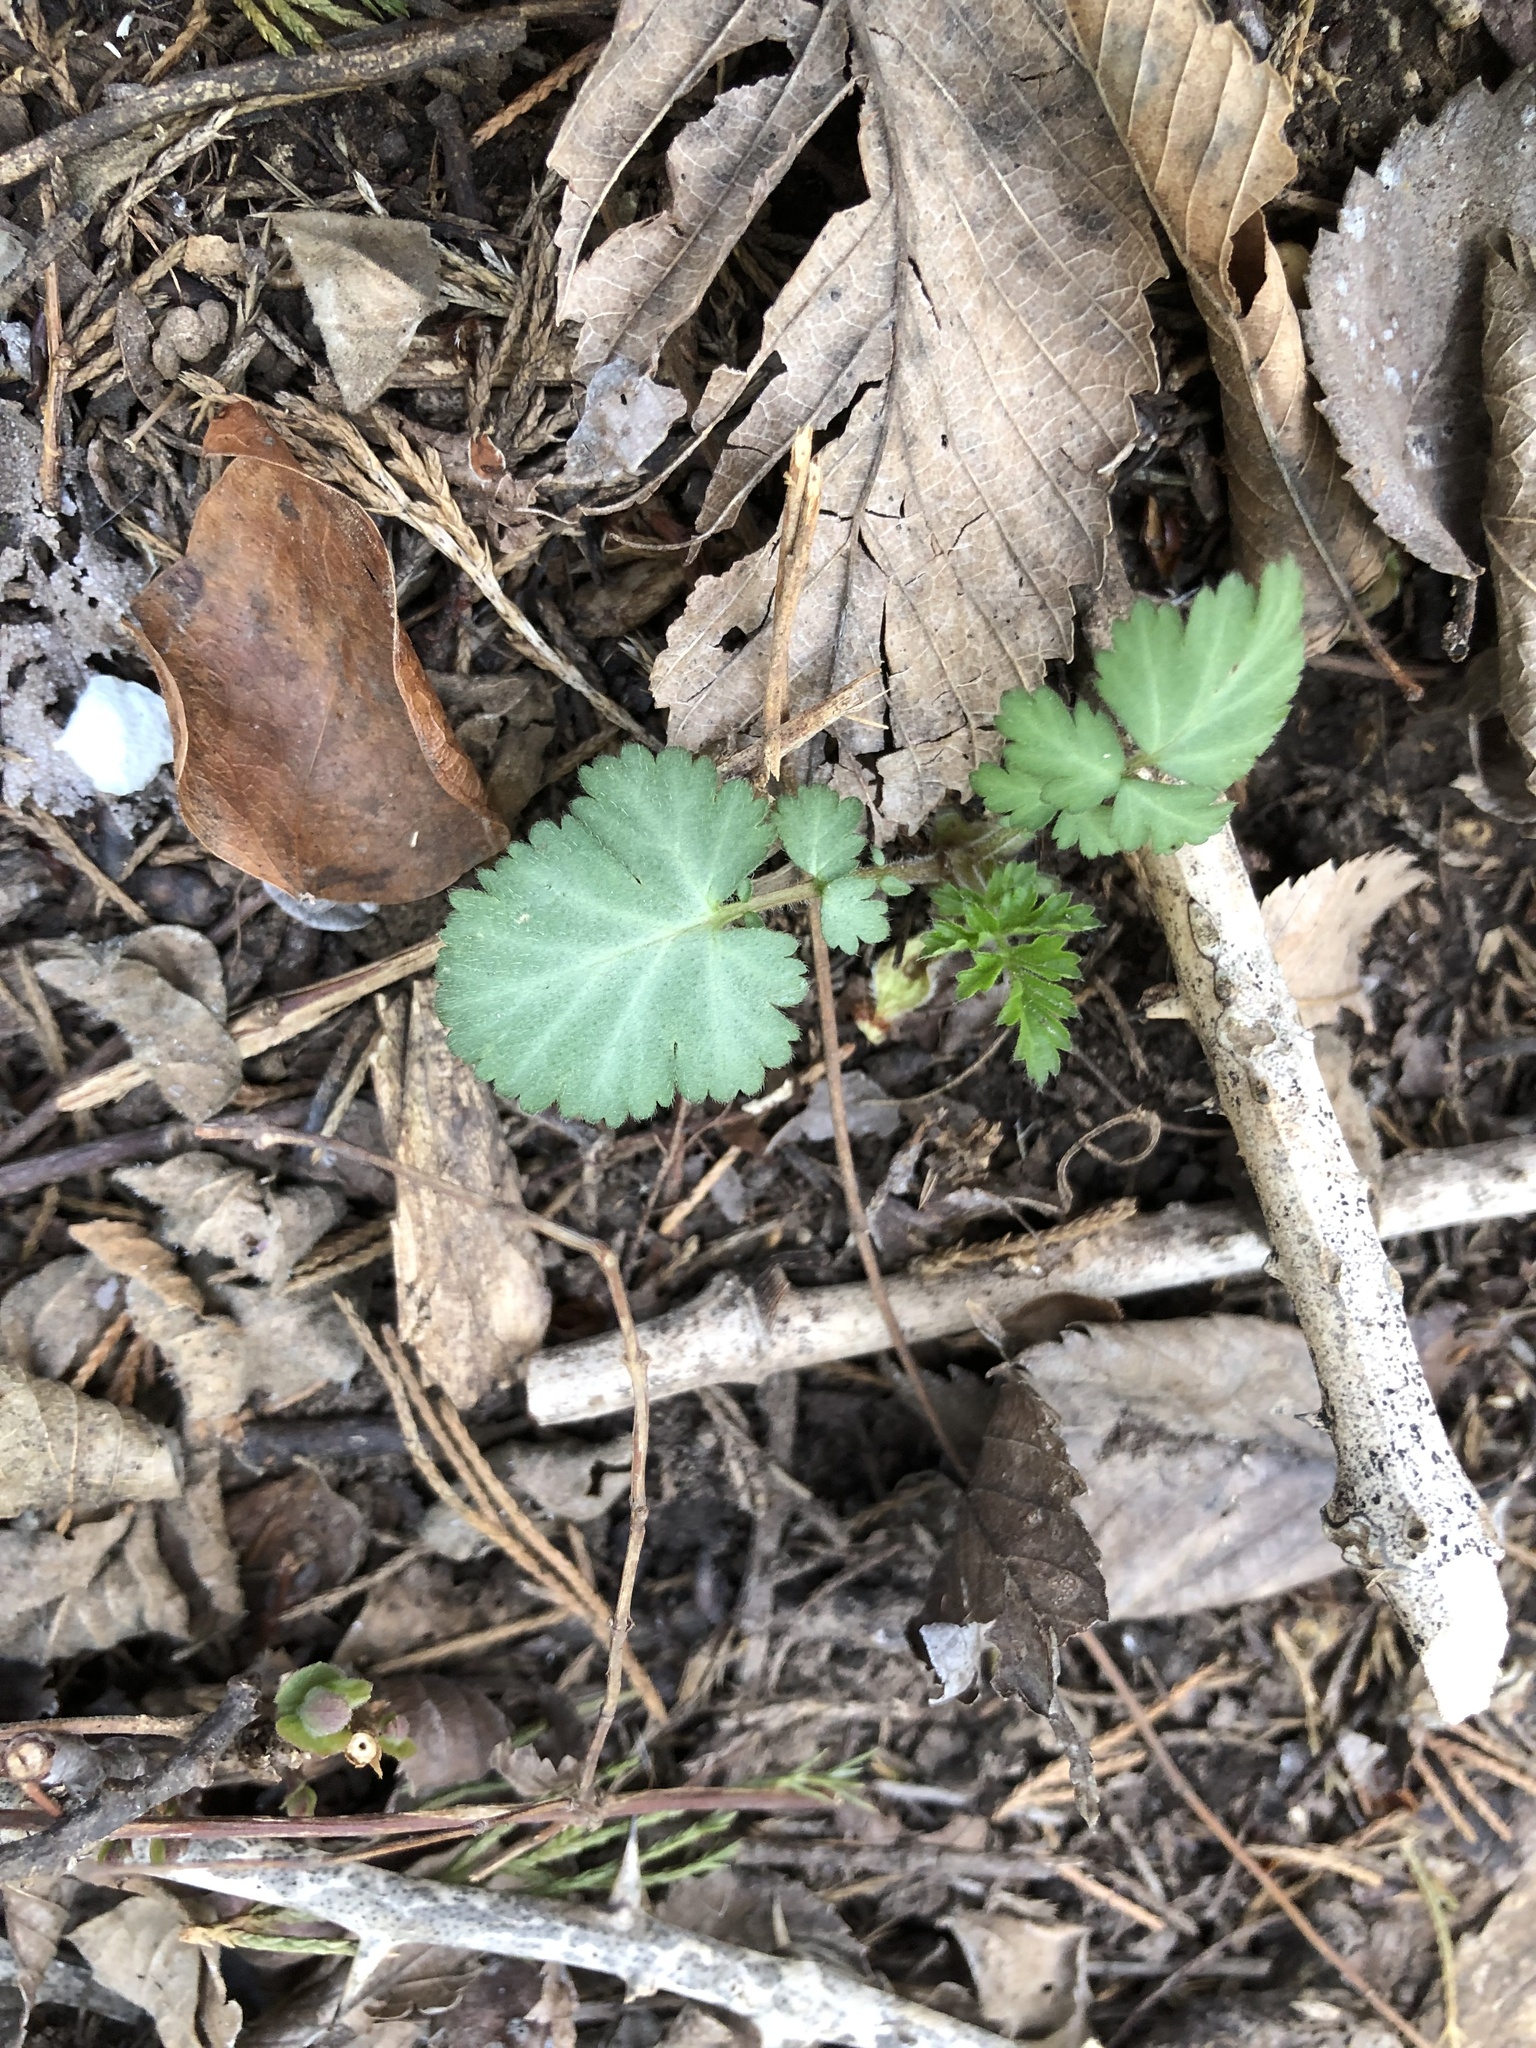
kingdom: Plantae
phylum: Tracheophyta
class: Magnoliopsida
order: Rosales
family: Rosaceae
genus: Geum
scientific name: Geum canadense
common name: White avens
